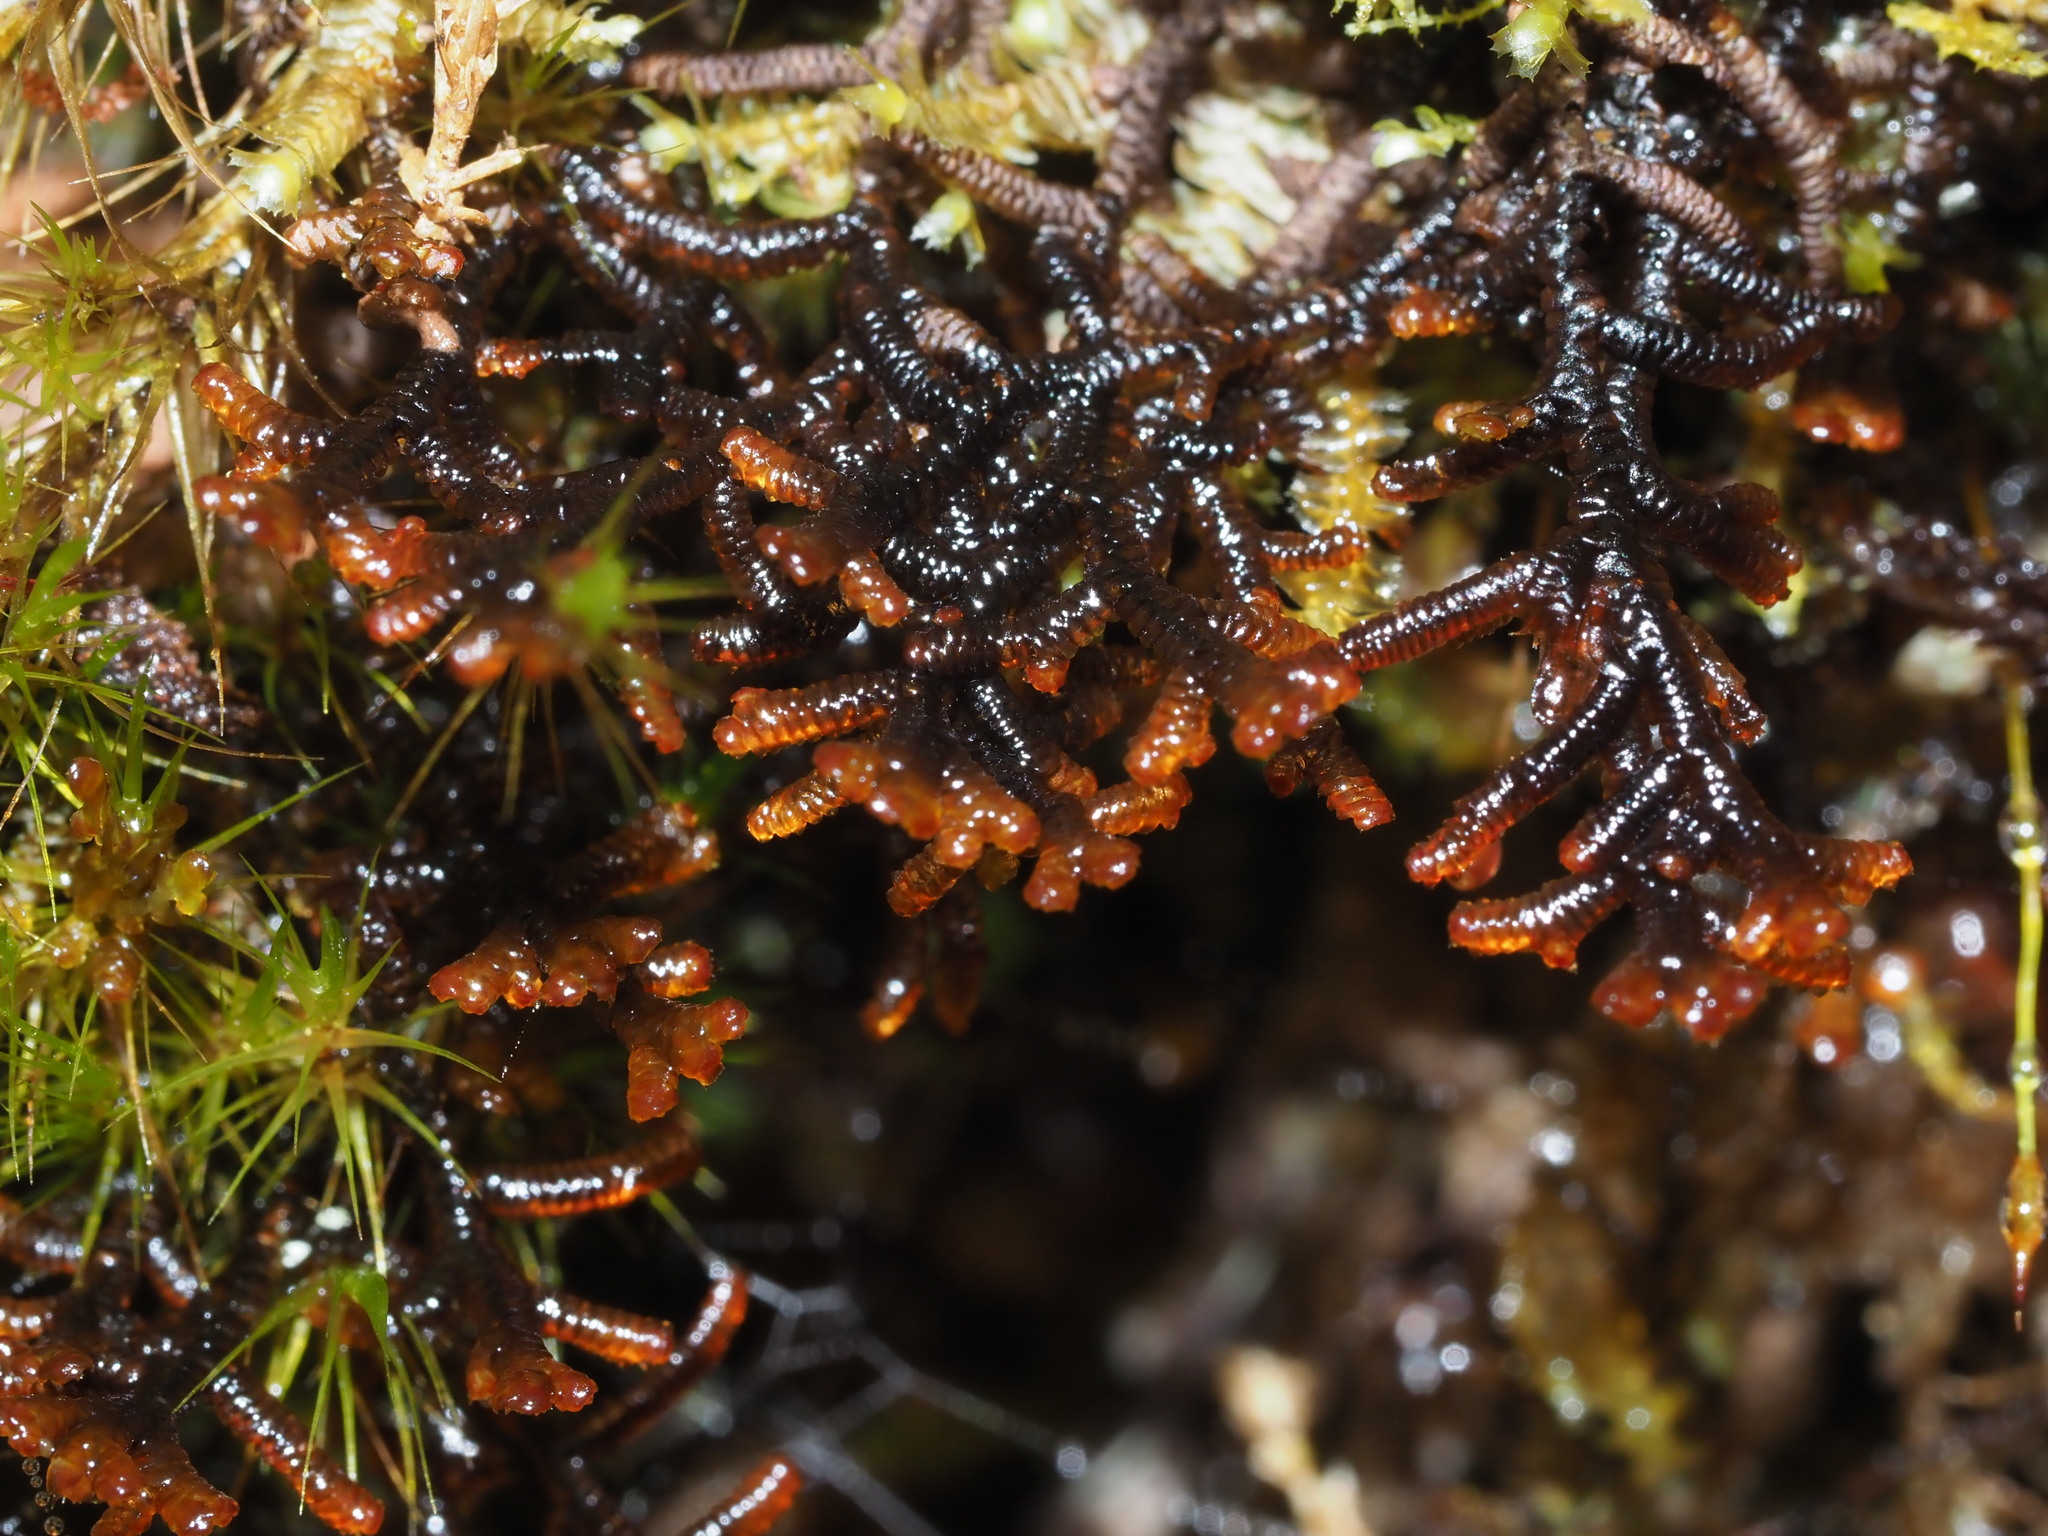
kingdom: Plantae
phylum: Marchantiophyta
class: Jungermanniopsida
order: Porellales
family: Frullaniaceae
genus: Frullania
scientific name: Frullania apiculata
